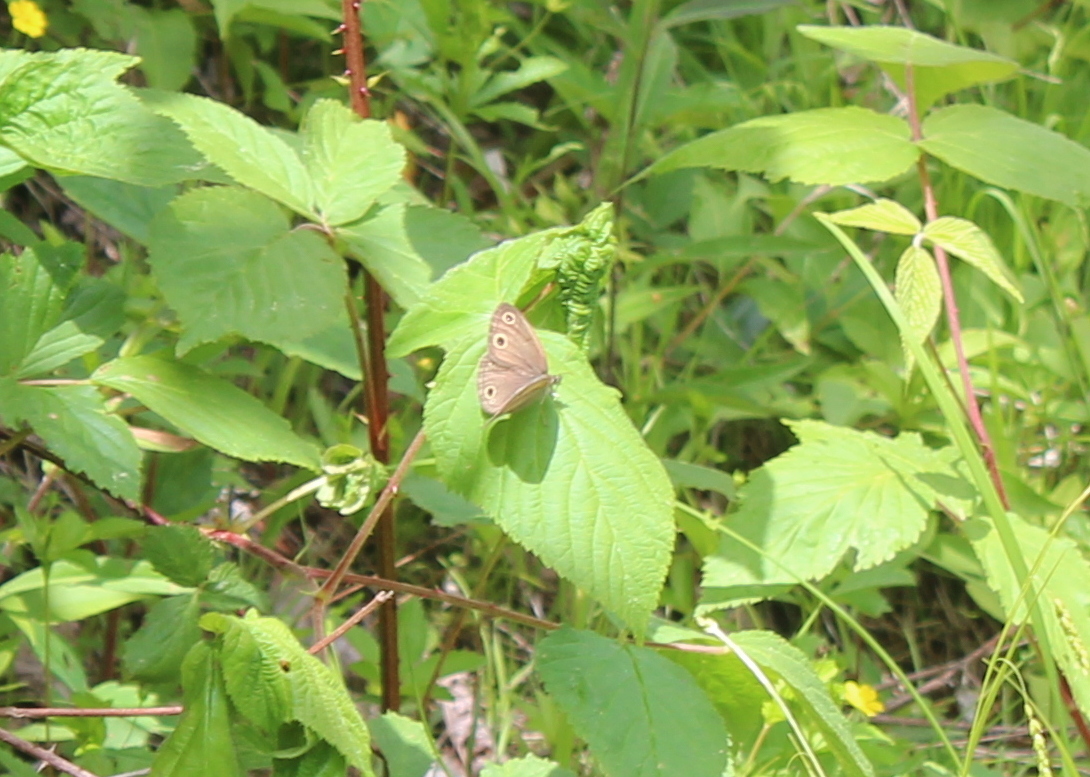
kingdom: Animalia
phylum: Arthropoda
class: Insecta
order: Lepidoptera
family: Nymphalidae
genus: Euptychia
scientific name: Euptychia cymela
